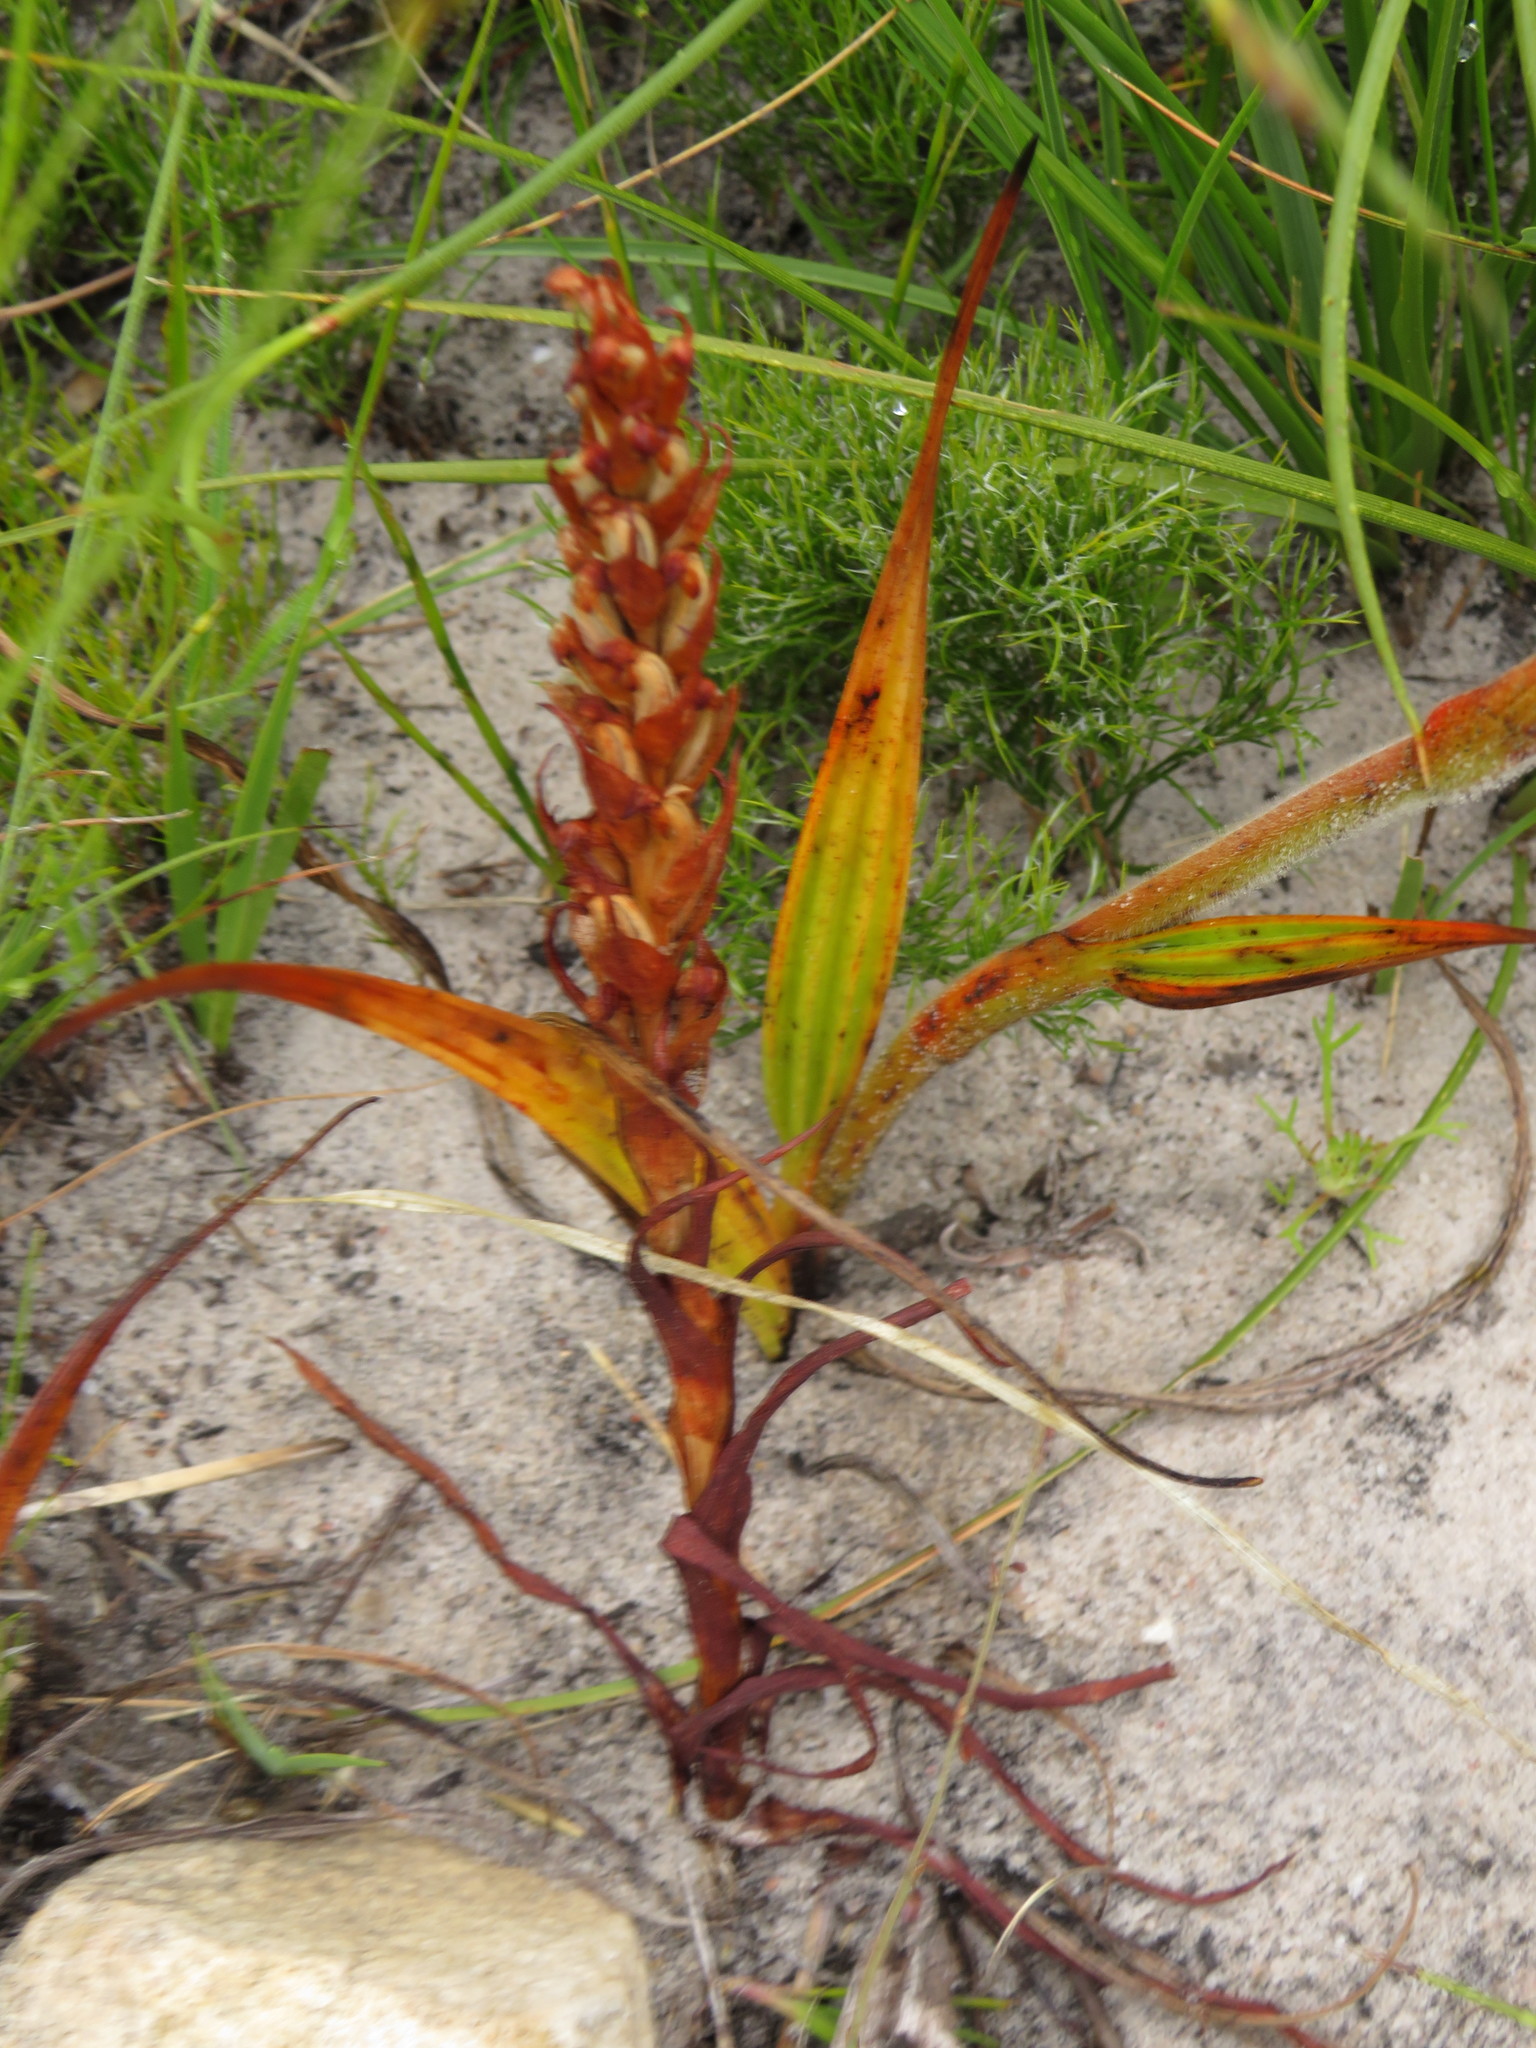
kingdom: Plantae
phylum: Tracheophyta
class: Liliopsida
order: Asparagales
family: Orchidaceae
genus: Disa
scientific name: Disa bracteata
